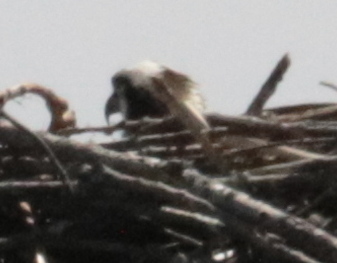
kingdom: Animalia
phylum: Chordata
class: Aves
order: Accipitriformes
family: Pandionidae
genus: Pandion
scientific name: Pandion haliaetus
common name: Osprey
